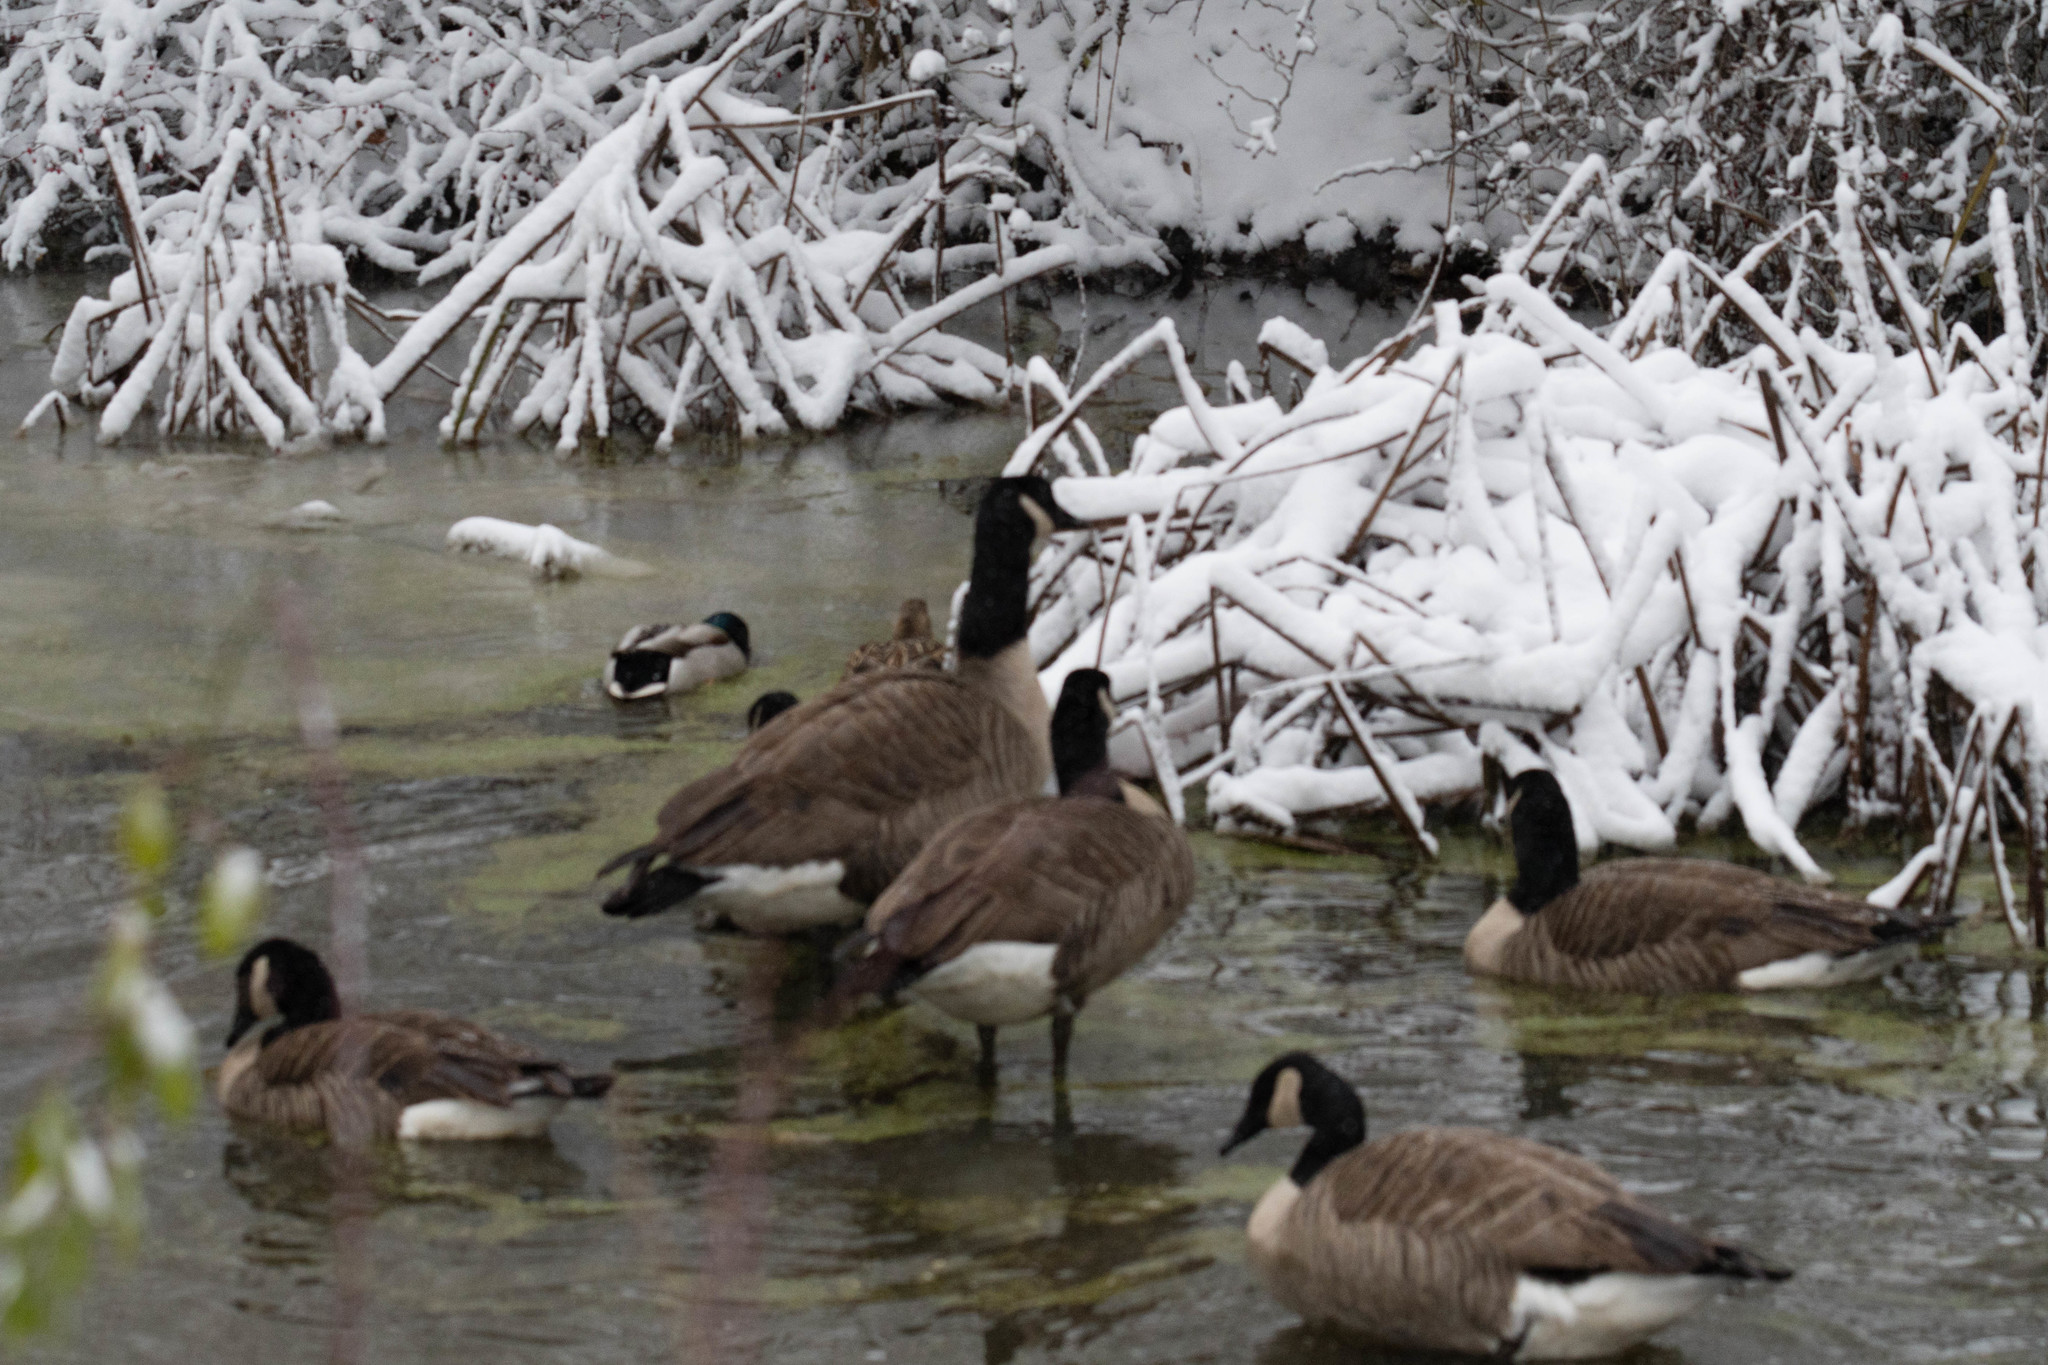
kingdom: Animalia
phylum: Chordata
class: Aves
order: Anseriformes
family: Anatidae
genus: Branta
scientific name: Branta canadensis
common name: Canada goose
